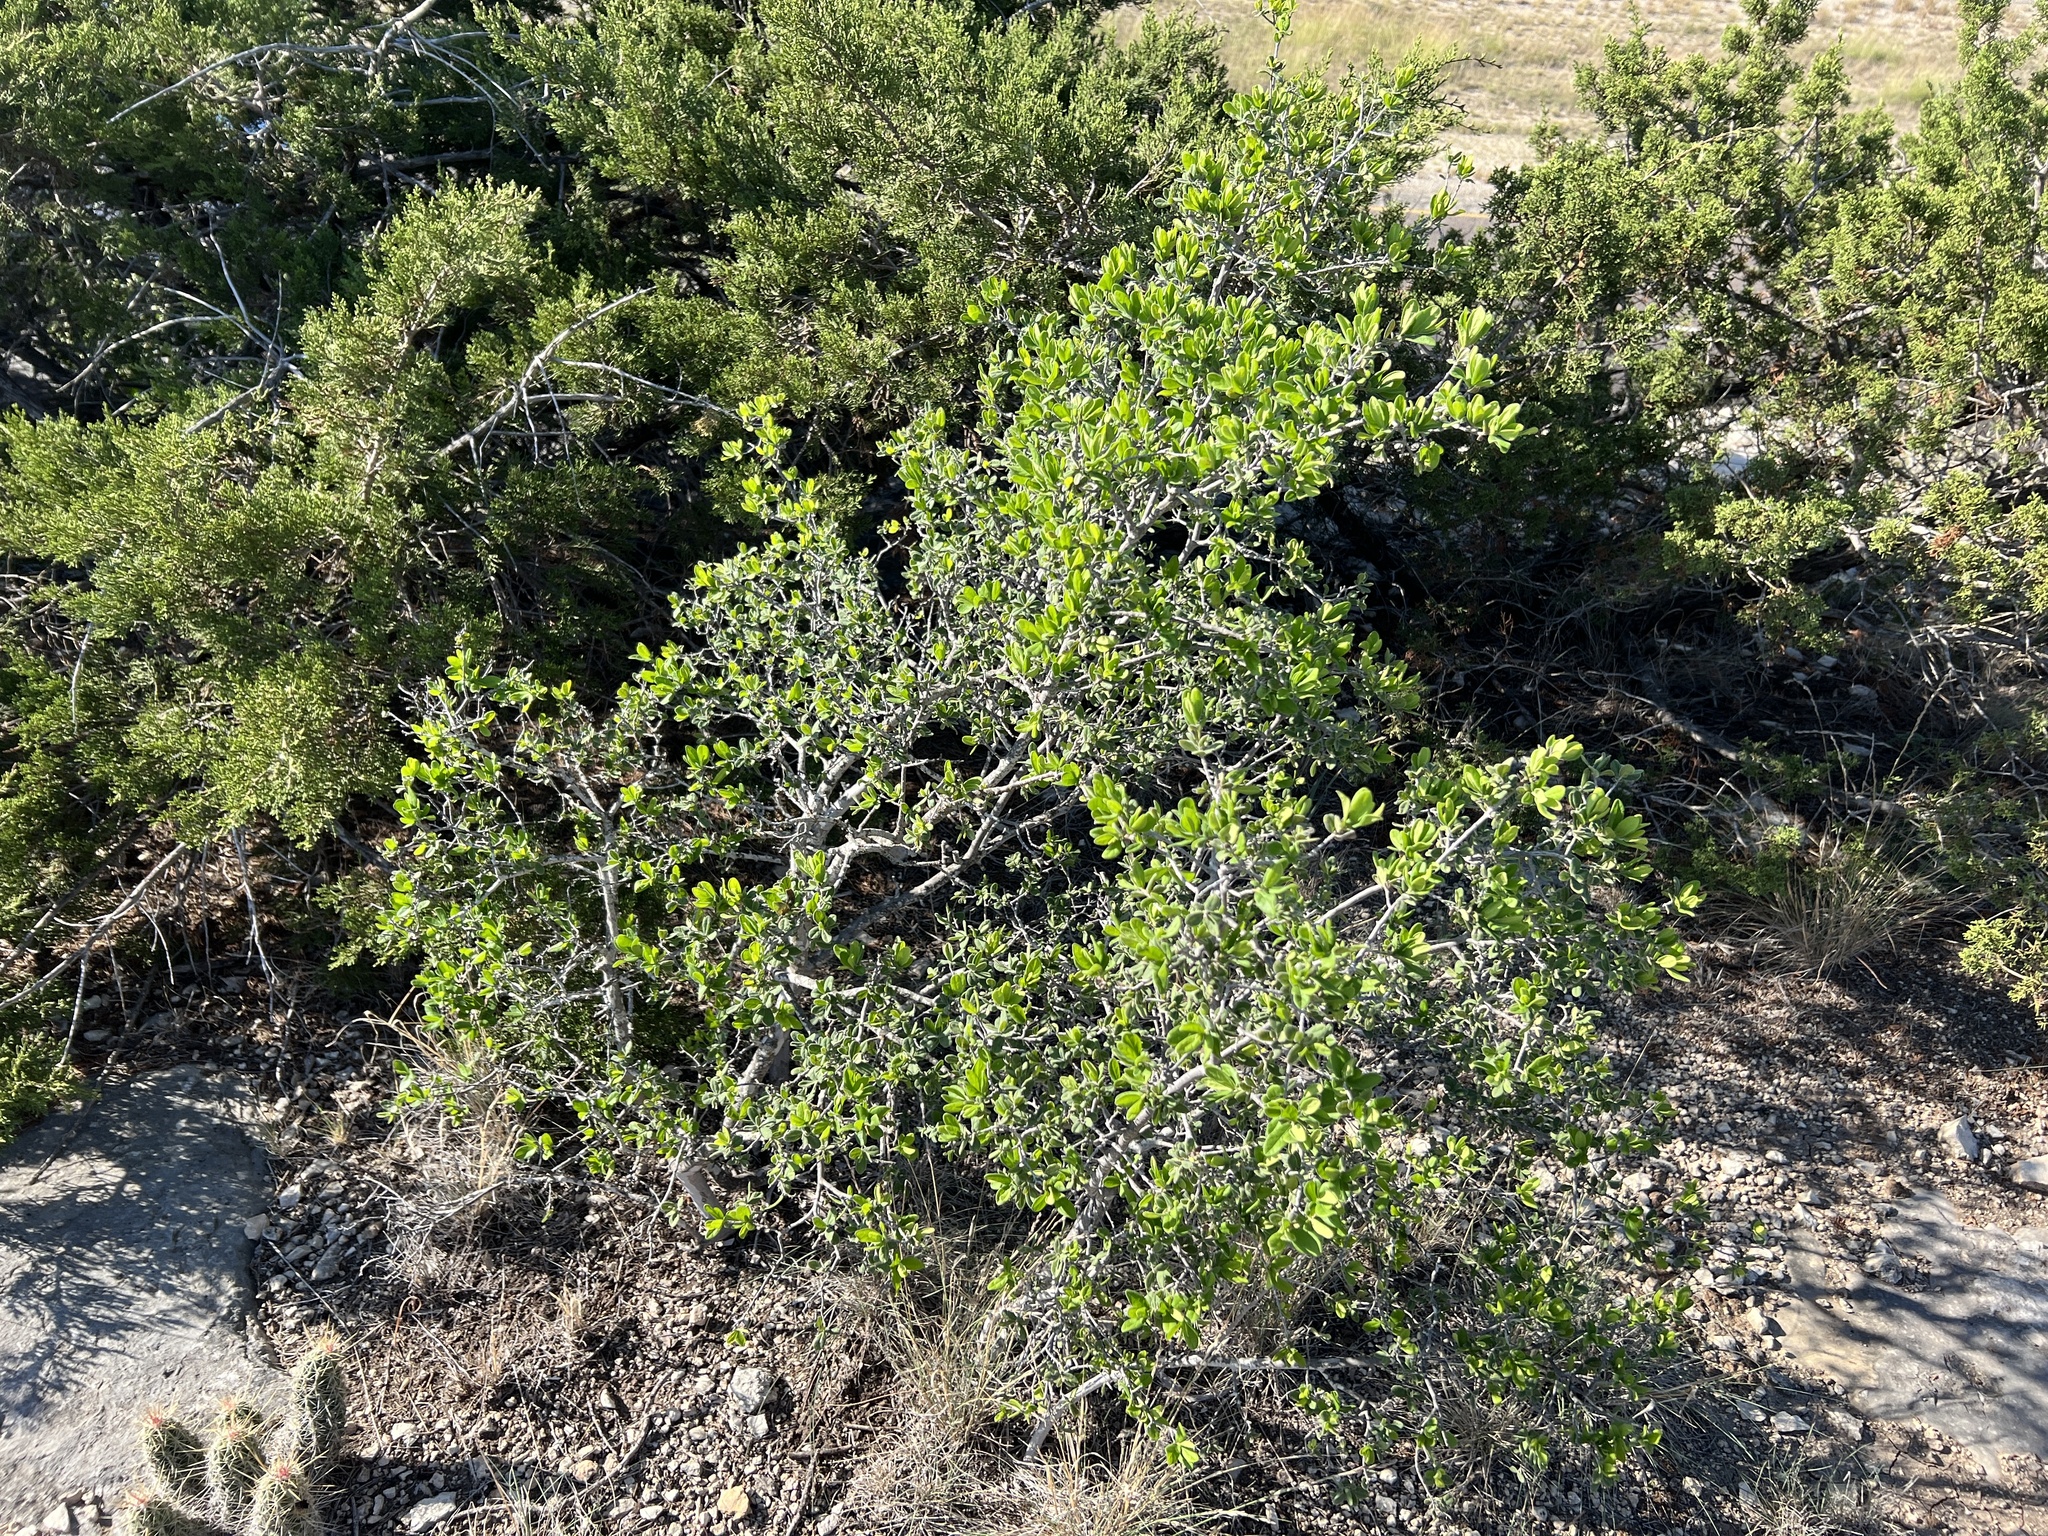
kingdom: Plantae
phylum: Tracheophyta
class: Magnoliopsida
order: Ericales
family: Ebenaceae
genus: Diospyros
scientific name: Diospyros texana
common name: Texas persimmon
